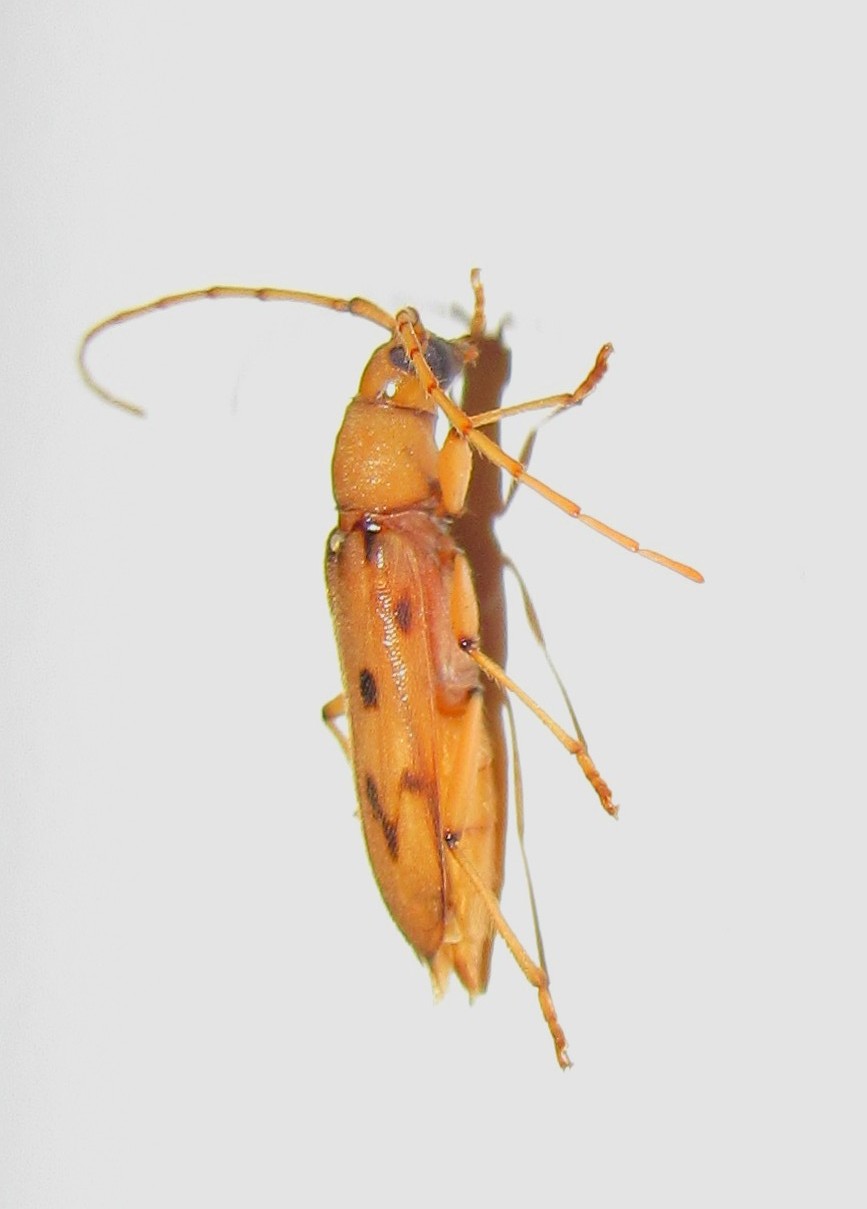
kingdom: Animalia
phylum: Arthropoda
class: Insecta
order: Coleoptera
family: Cerambycidae
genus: Achryson
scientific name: Achryson surinamum
